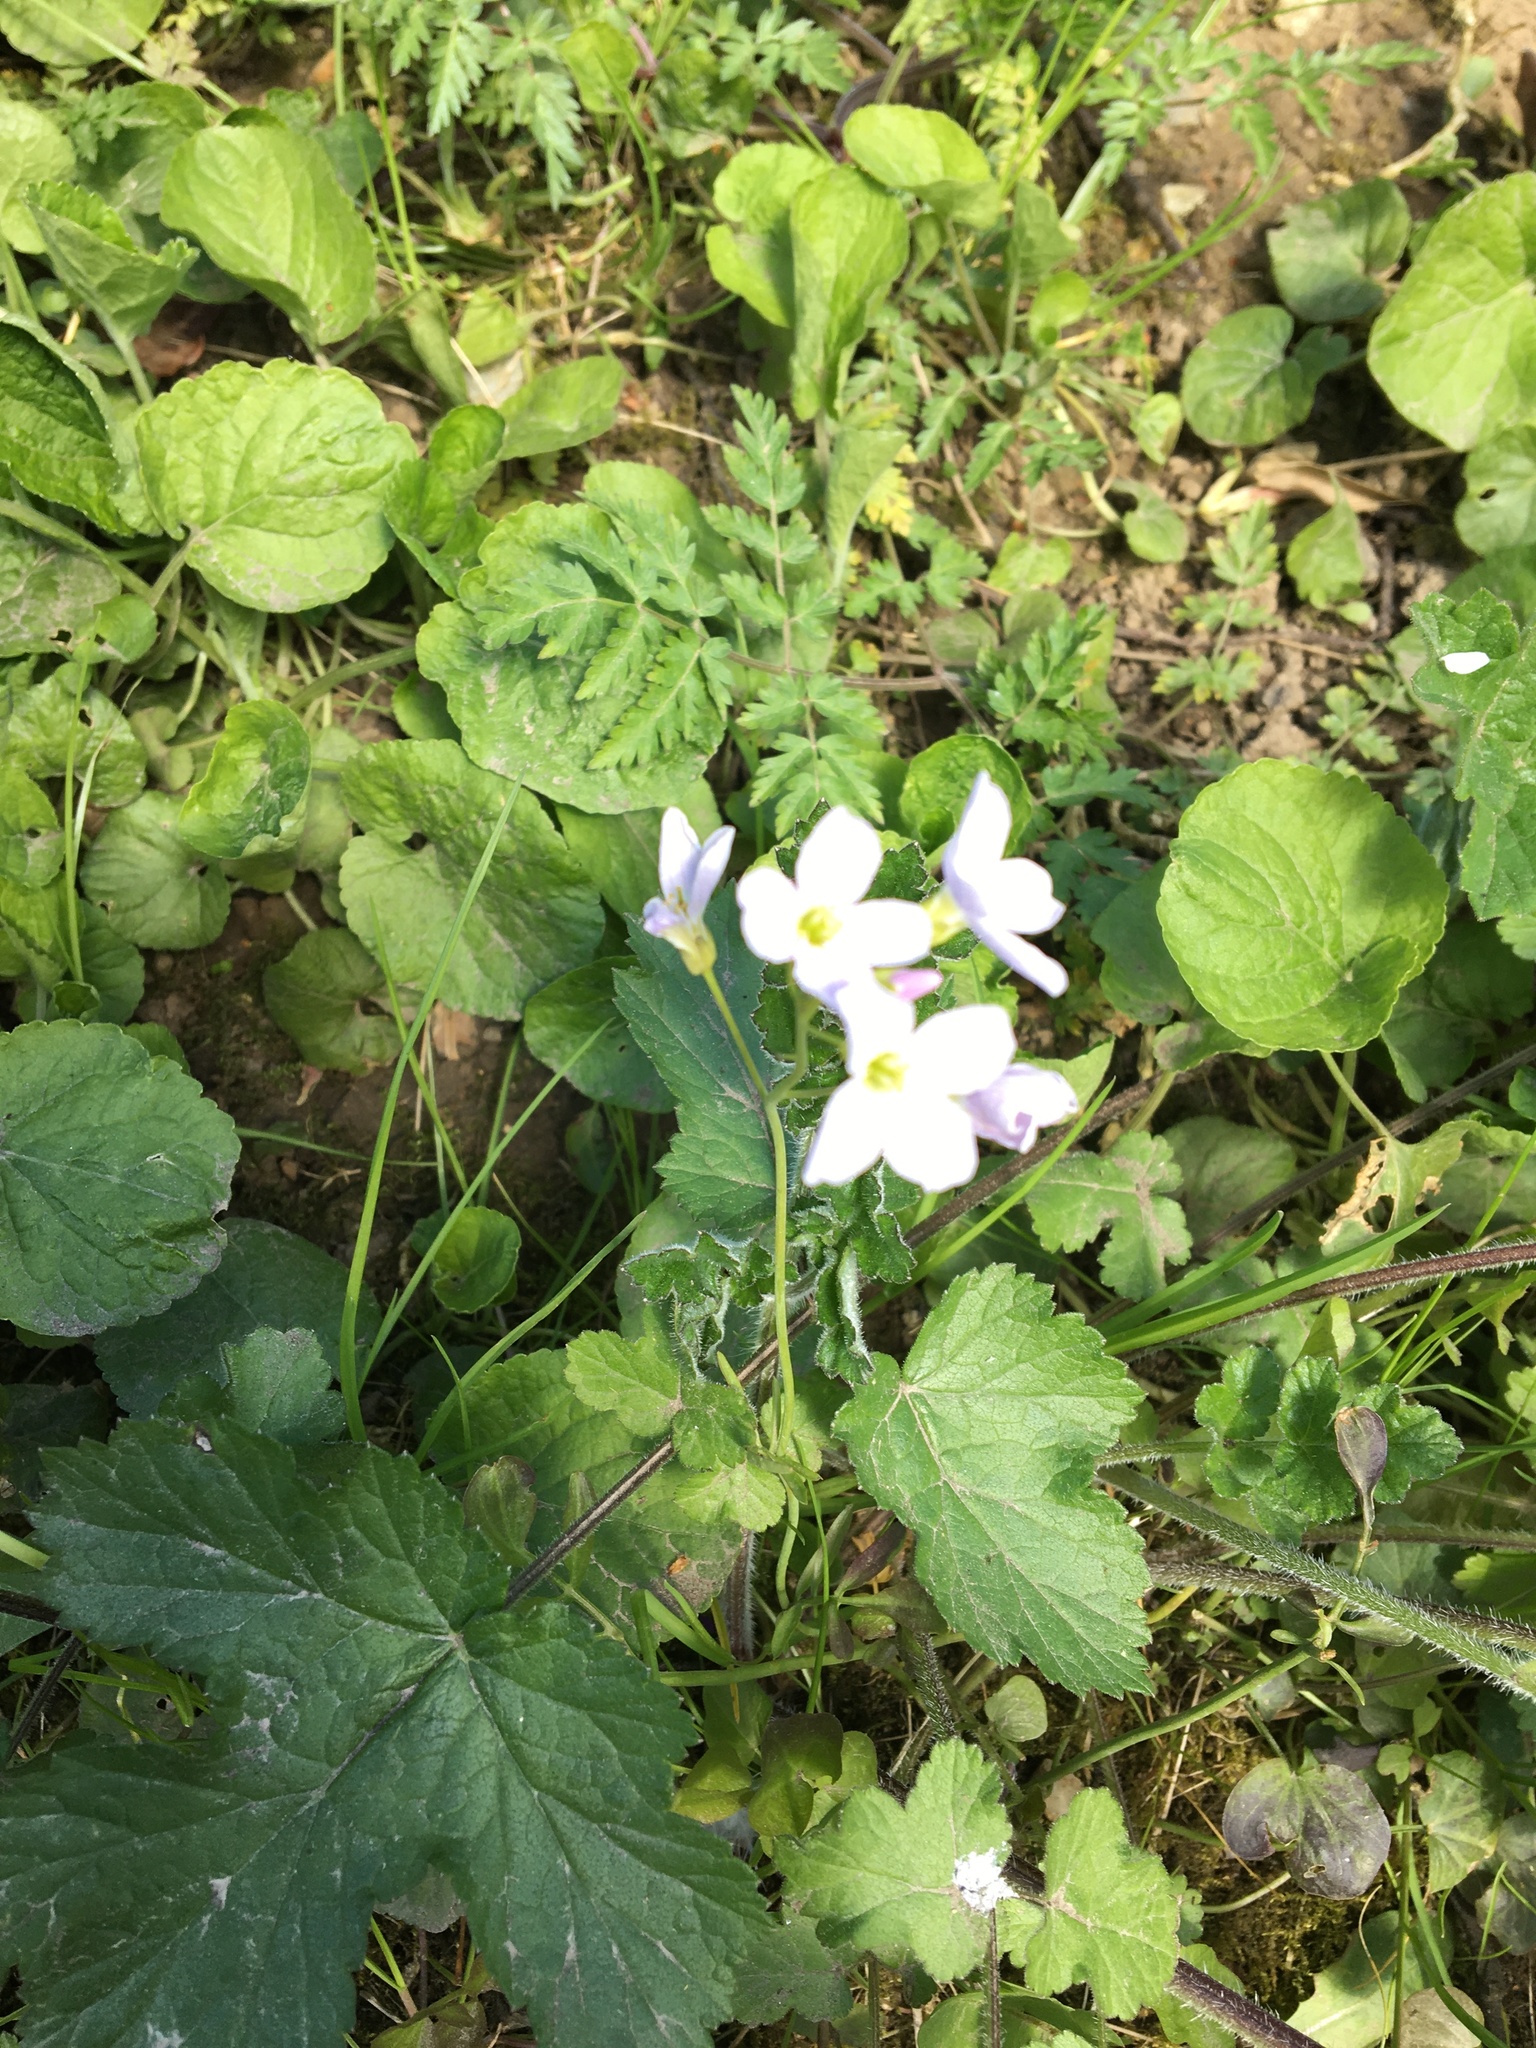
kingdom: Plantae
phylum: Tracheophyta
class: Magnoliopsida
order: Brassicales
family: Brassicaceae
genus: Cardamine
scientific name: Cardamine pratensis
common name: Cuckoo flower
